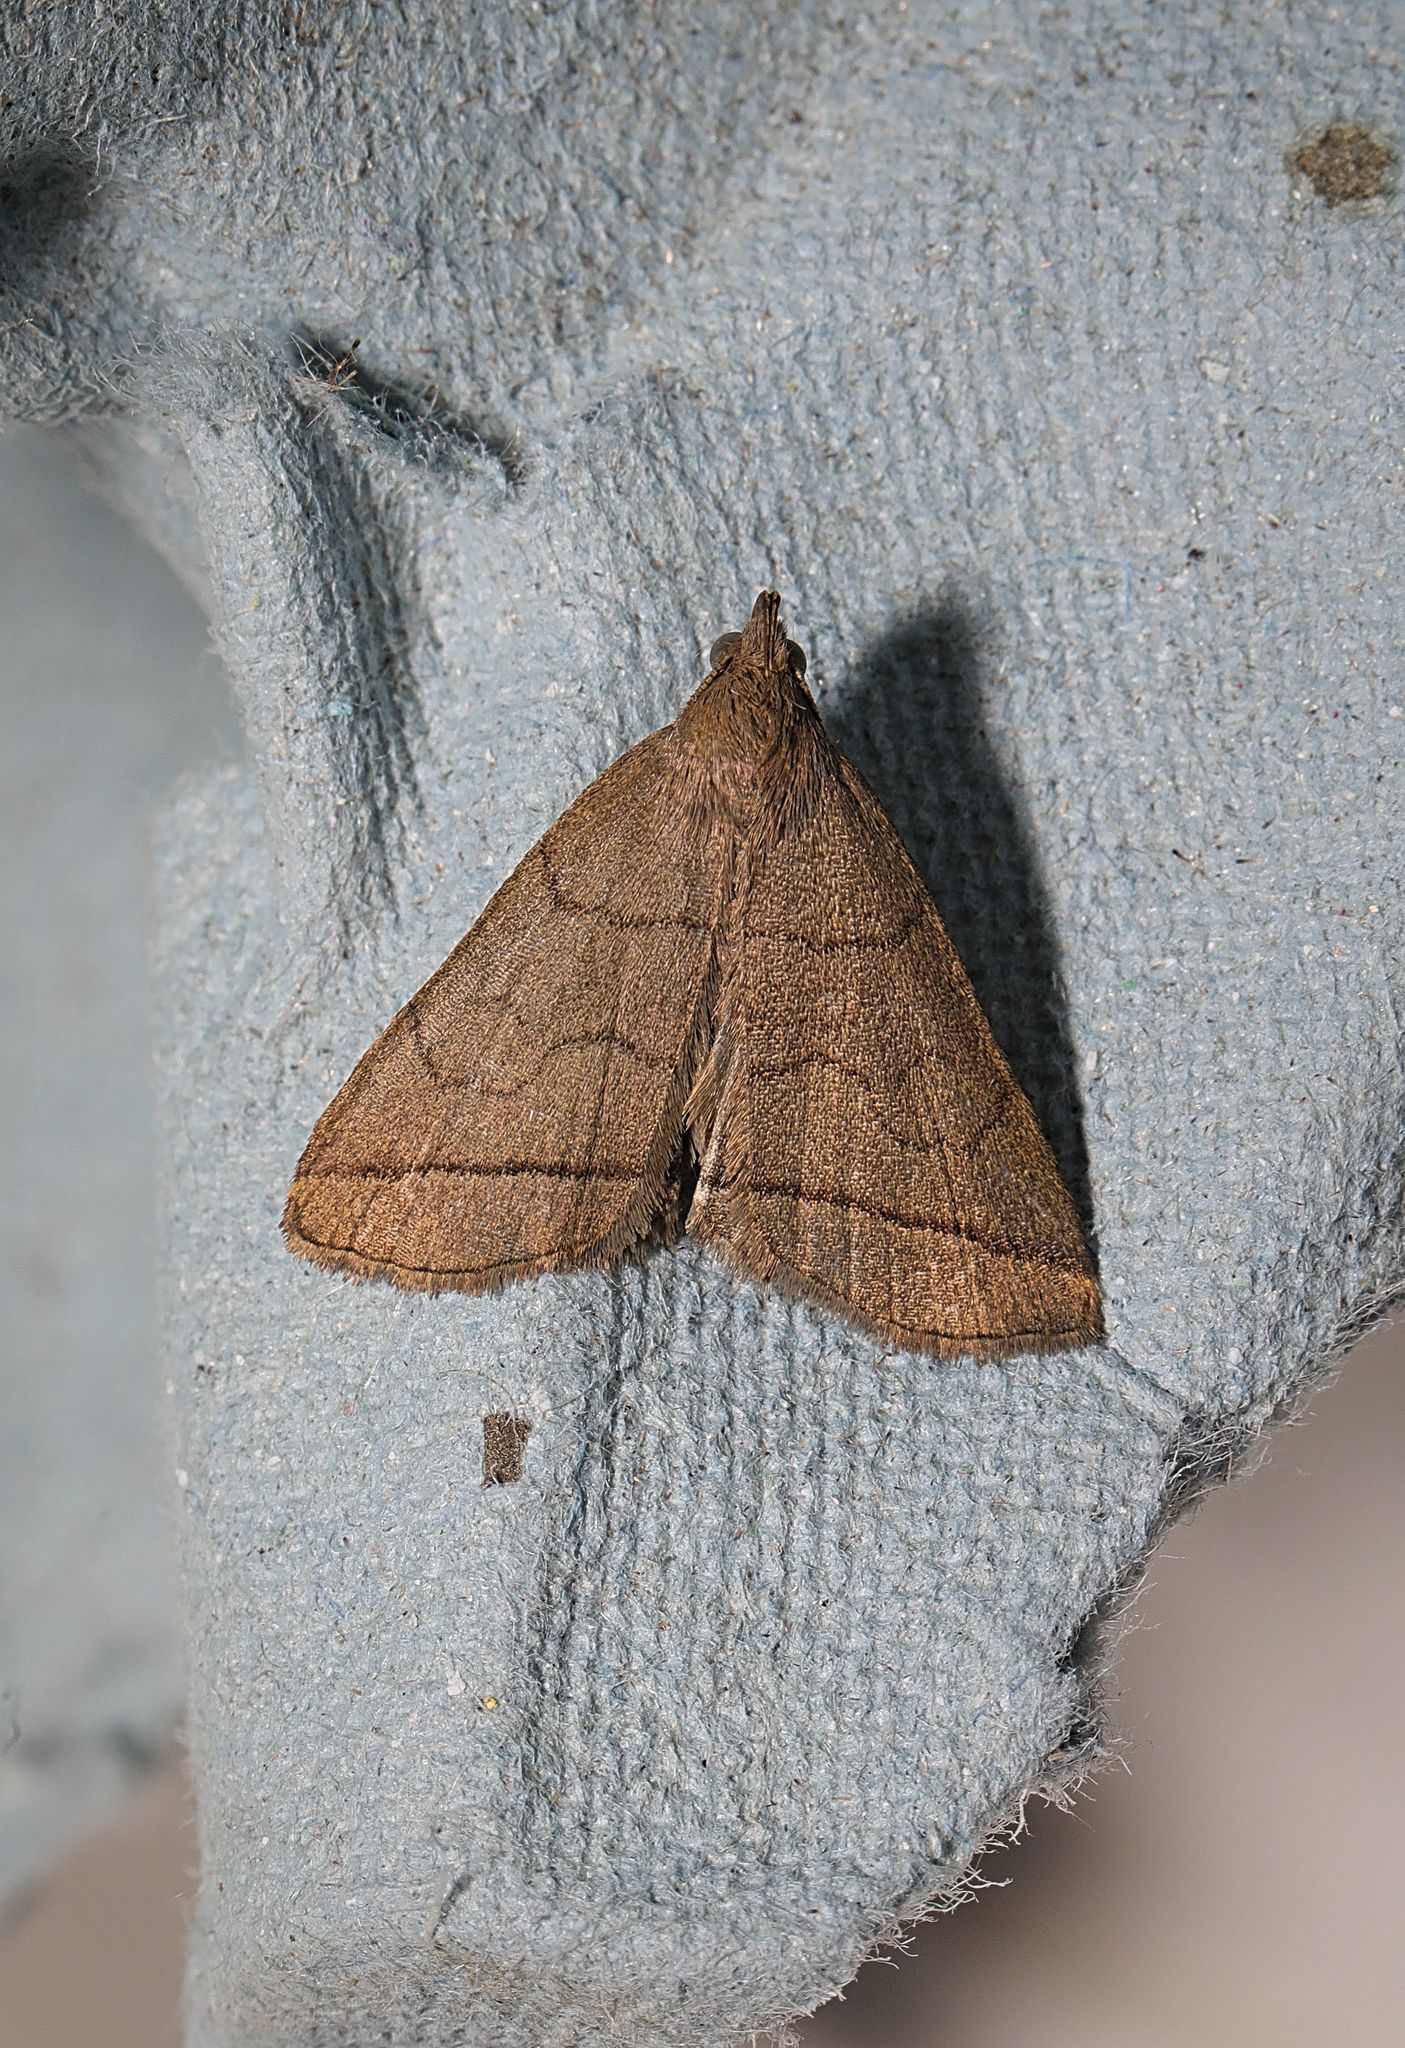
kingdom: Animalia
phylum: Arthropoda
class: Insecta
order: Lepidoptera
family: Erebidae
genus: Herminia
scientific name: Herminia tarsipennalis
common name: Fan-foot
